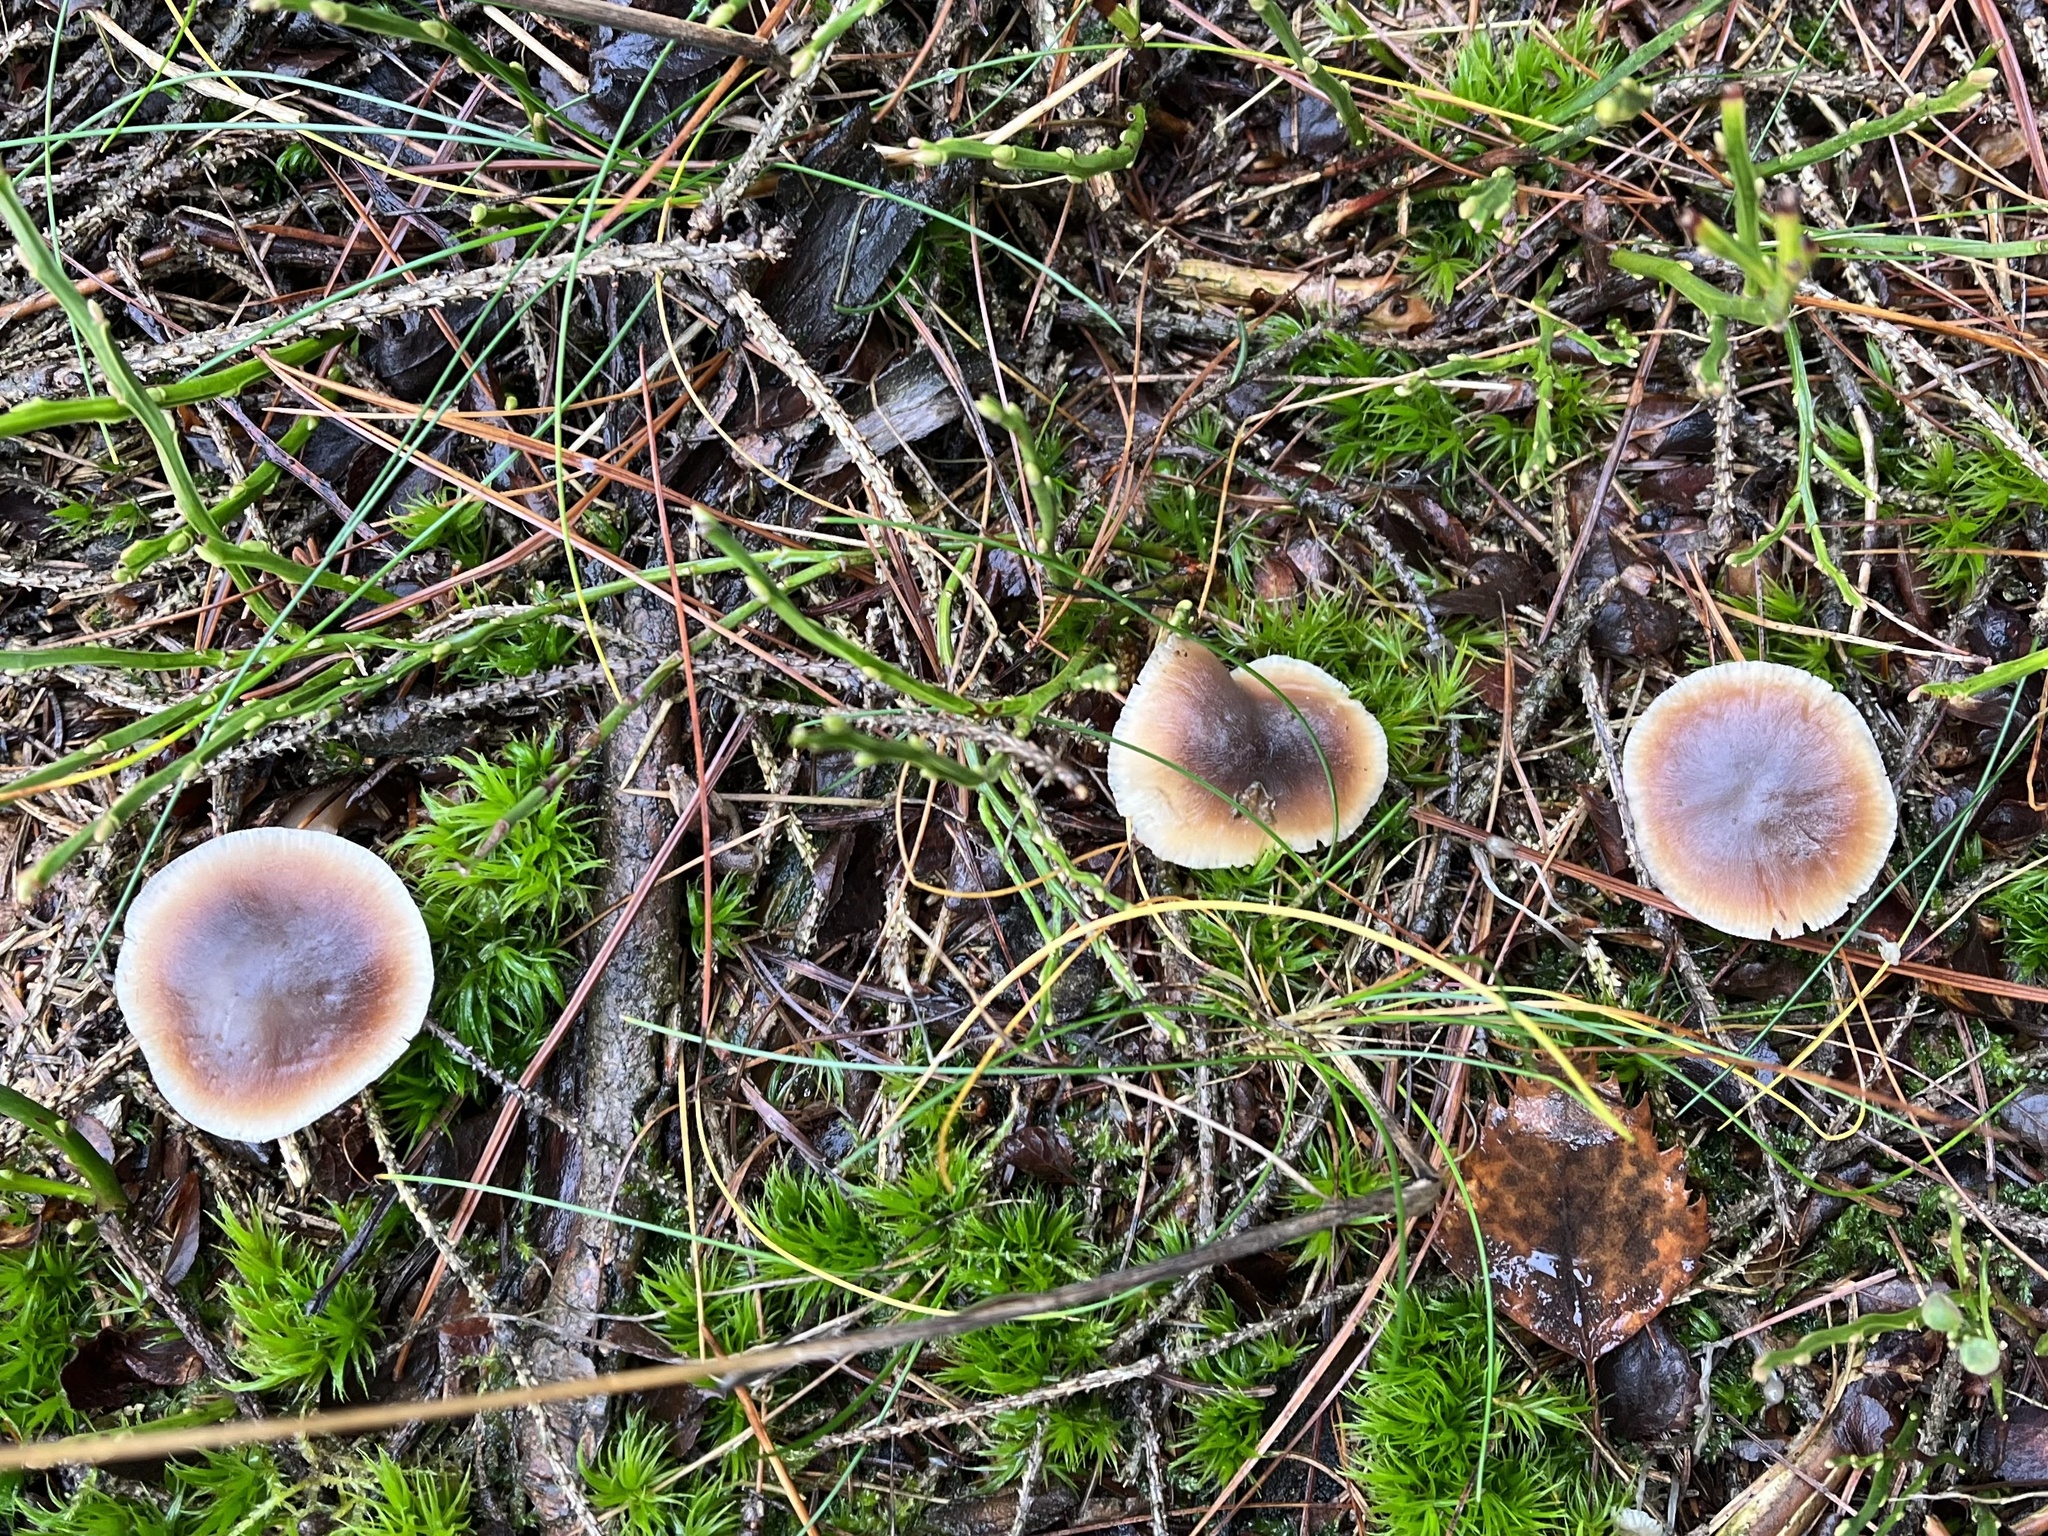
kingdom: Fungi
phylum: Basidiomycota
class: Agaricomycetes
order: Agaricales
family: Omphalotaceae
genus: Rhodocollybia
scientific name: Rhodocollybia butyracea
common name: Butter cap
